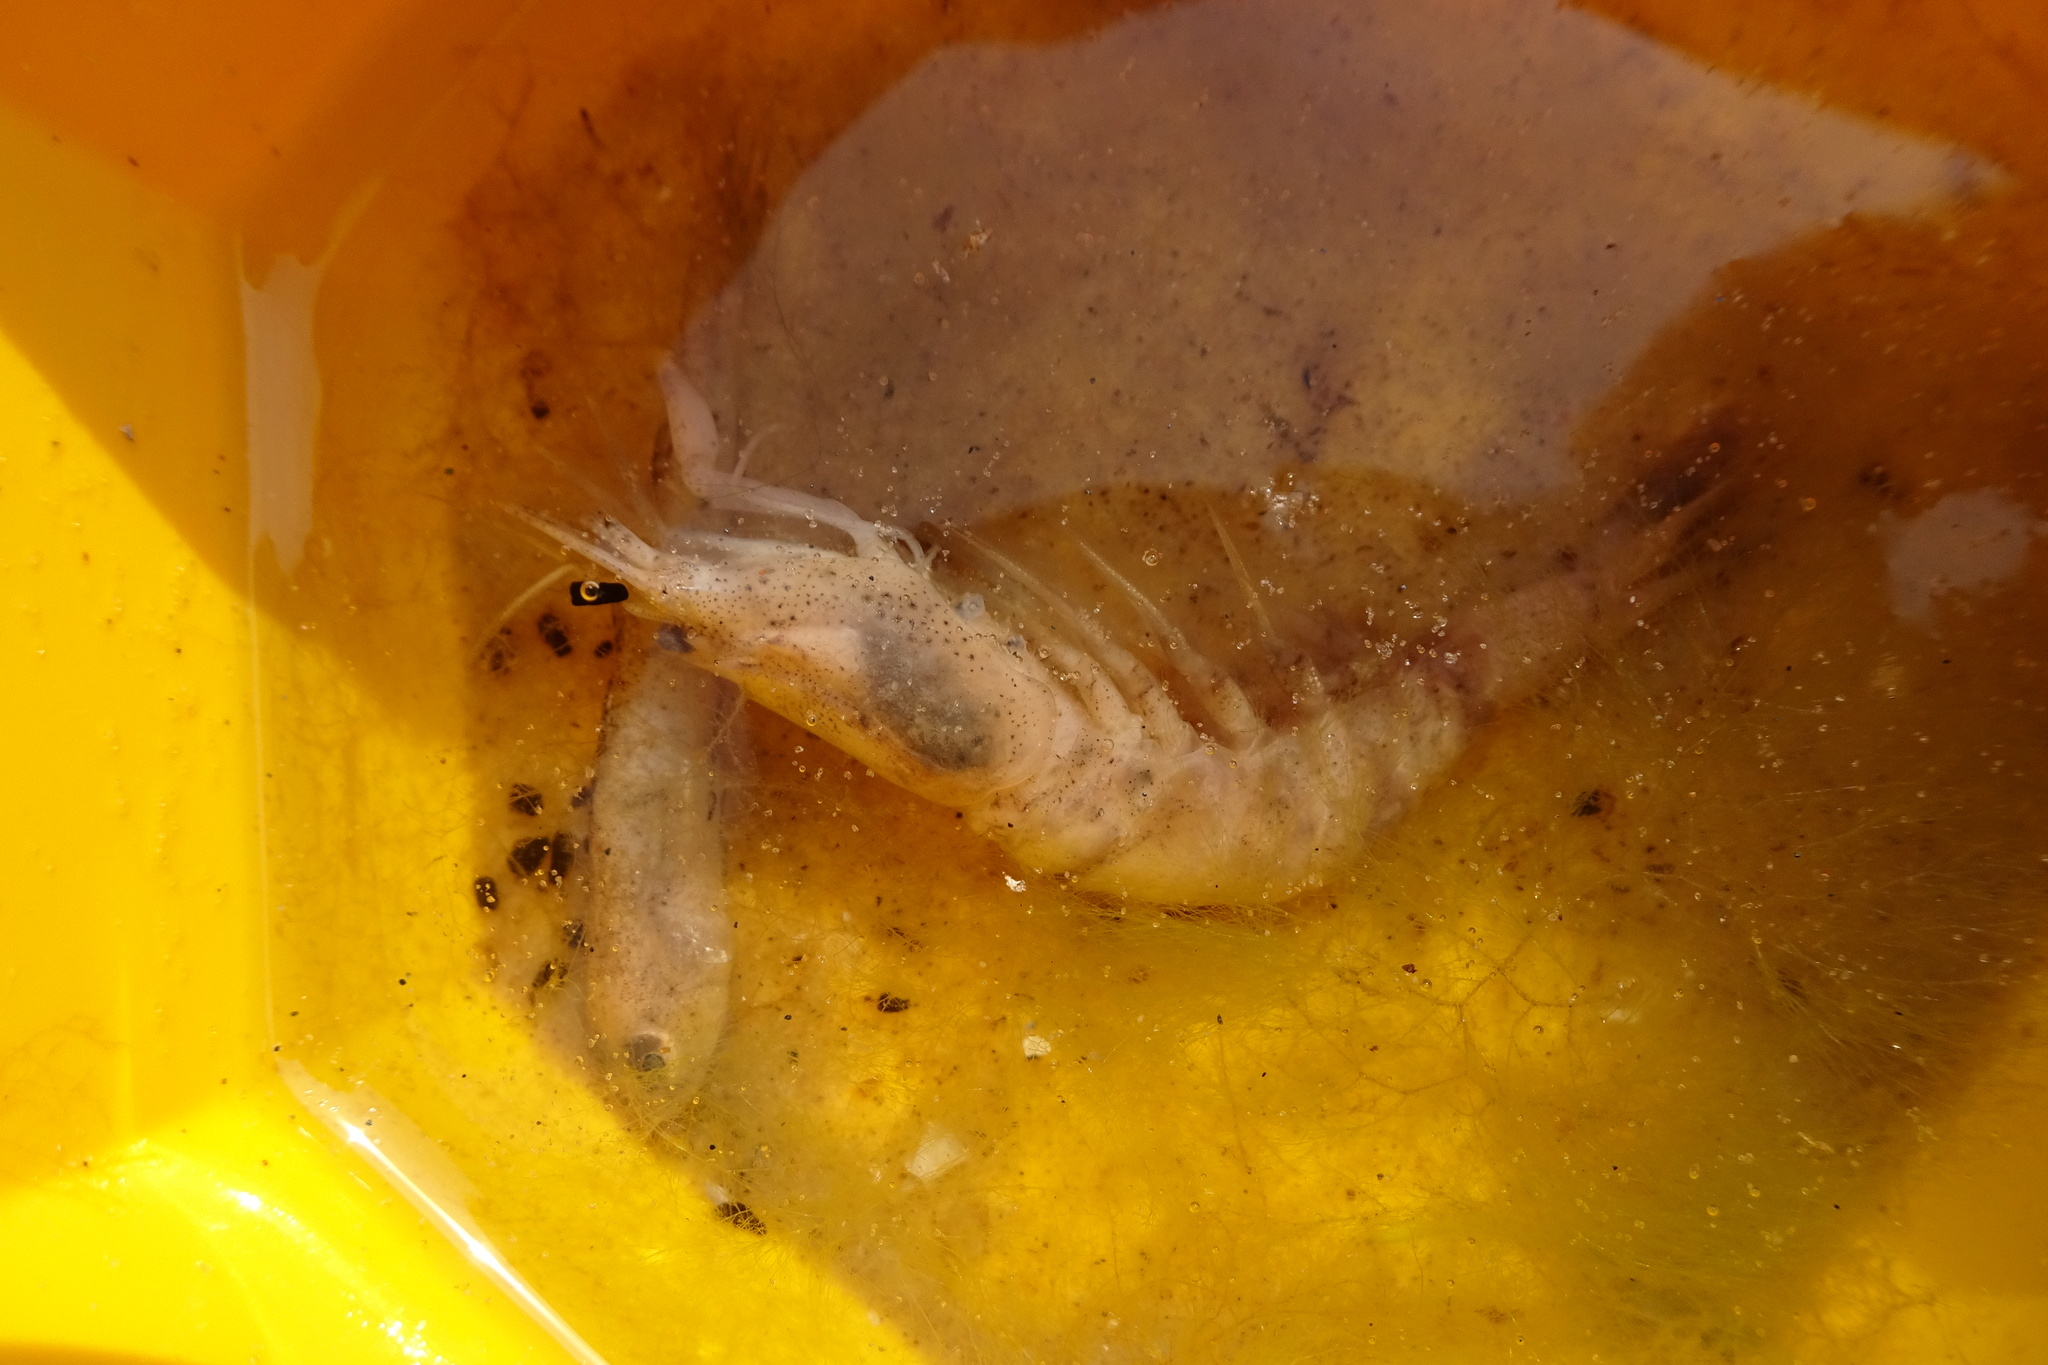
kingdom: Animalia
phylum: Arthropoda
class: Malacostraca
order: Decapoda
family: Crangonidae
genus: Crangon
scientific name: Crangon crangon
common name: Brown shrimp
